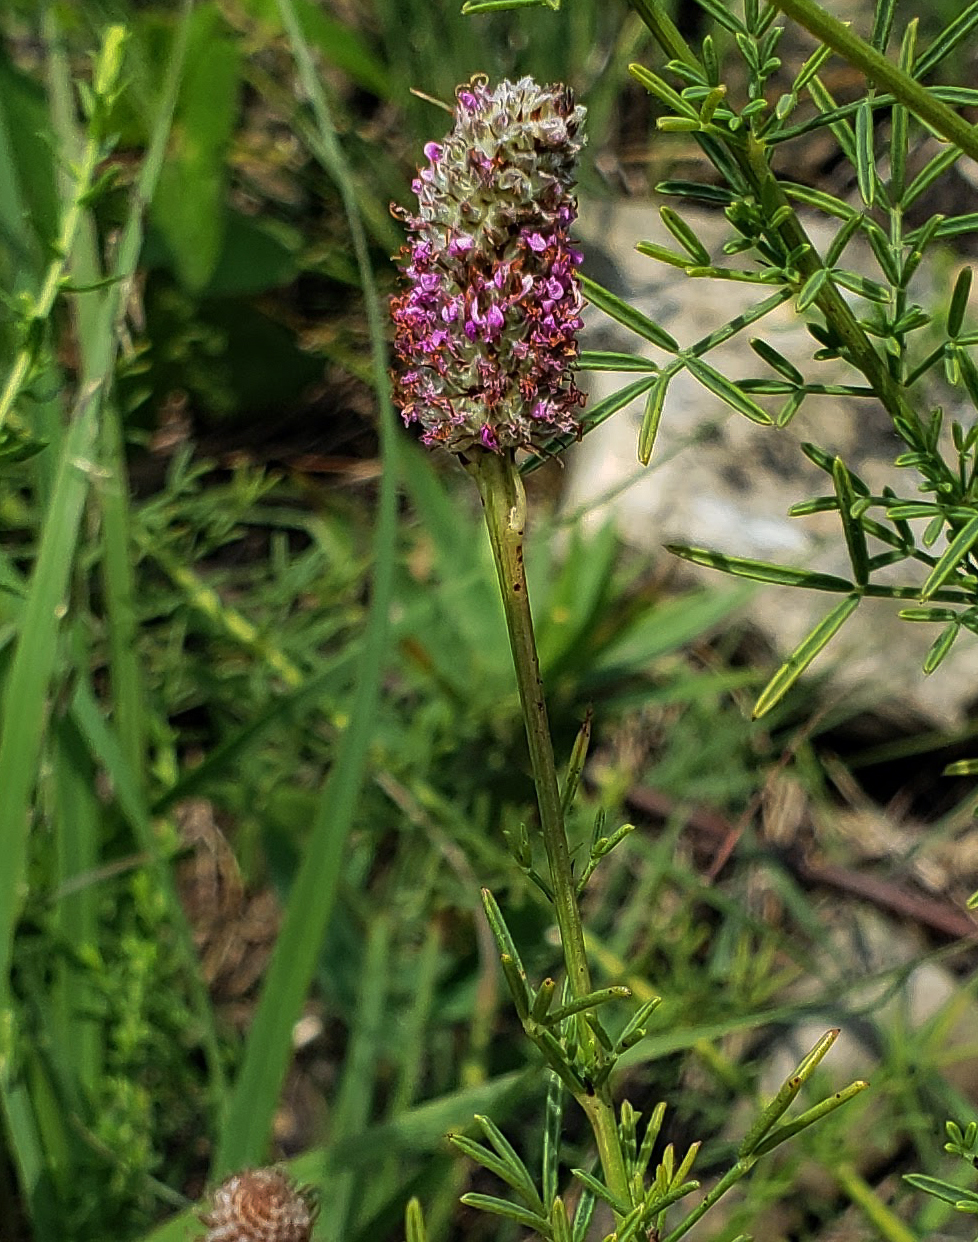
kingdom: Plantae
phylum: Tracheophyta
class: Magnoliopsida
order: Fabales
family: Fabaceae
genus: Dalea
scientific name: Dalea purpurea
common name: Purple prairie-clover
